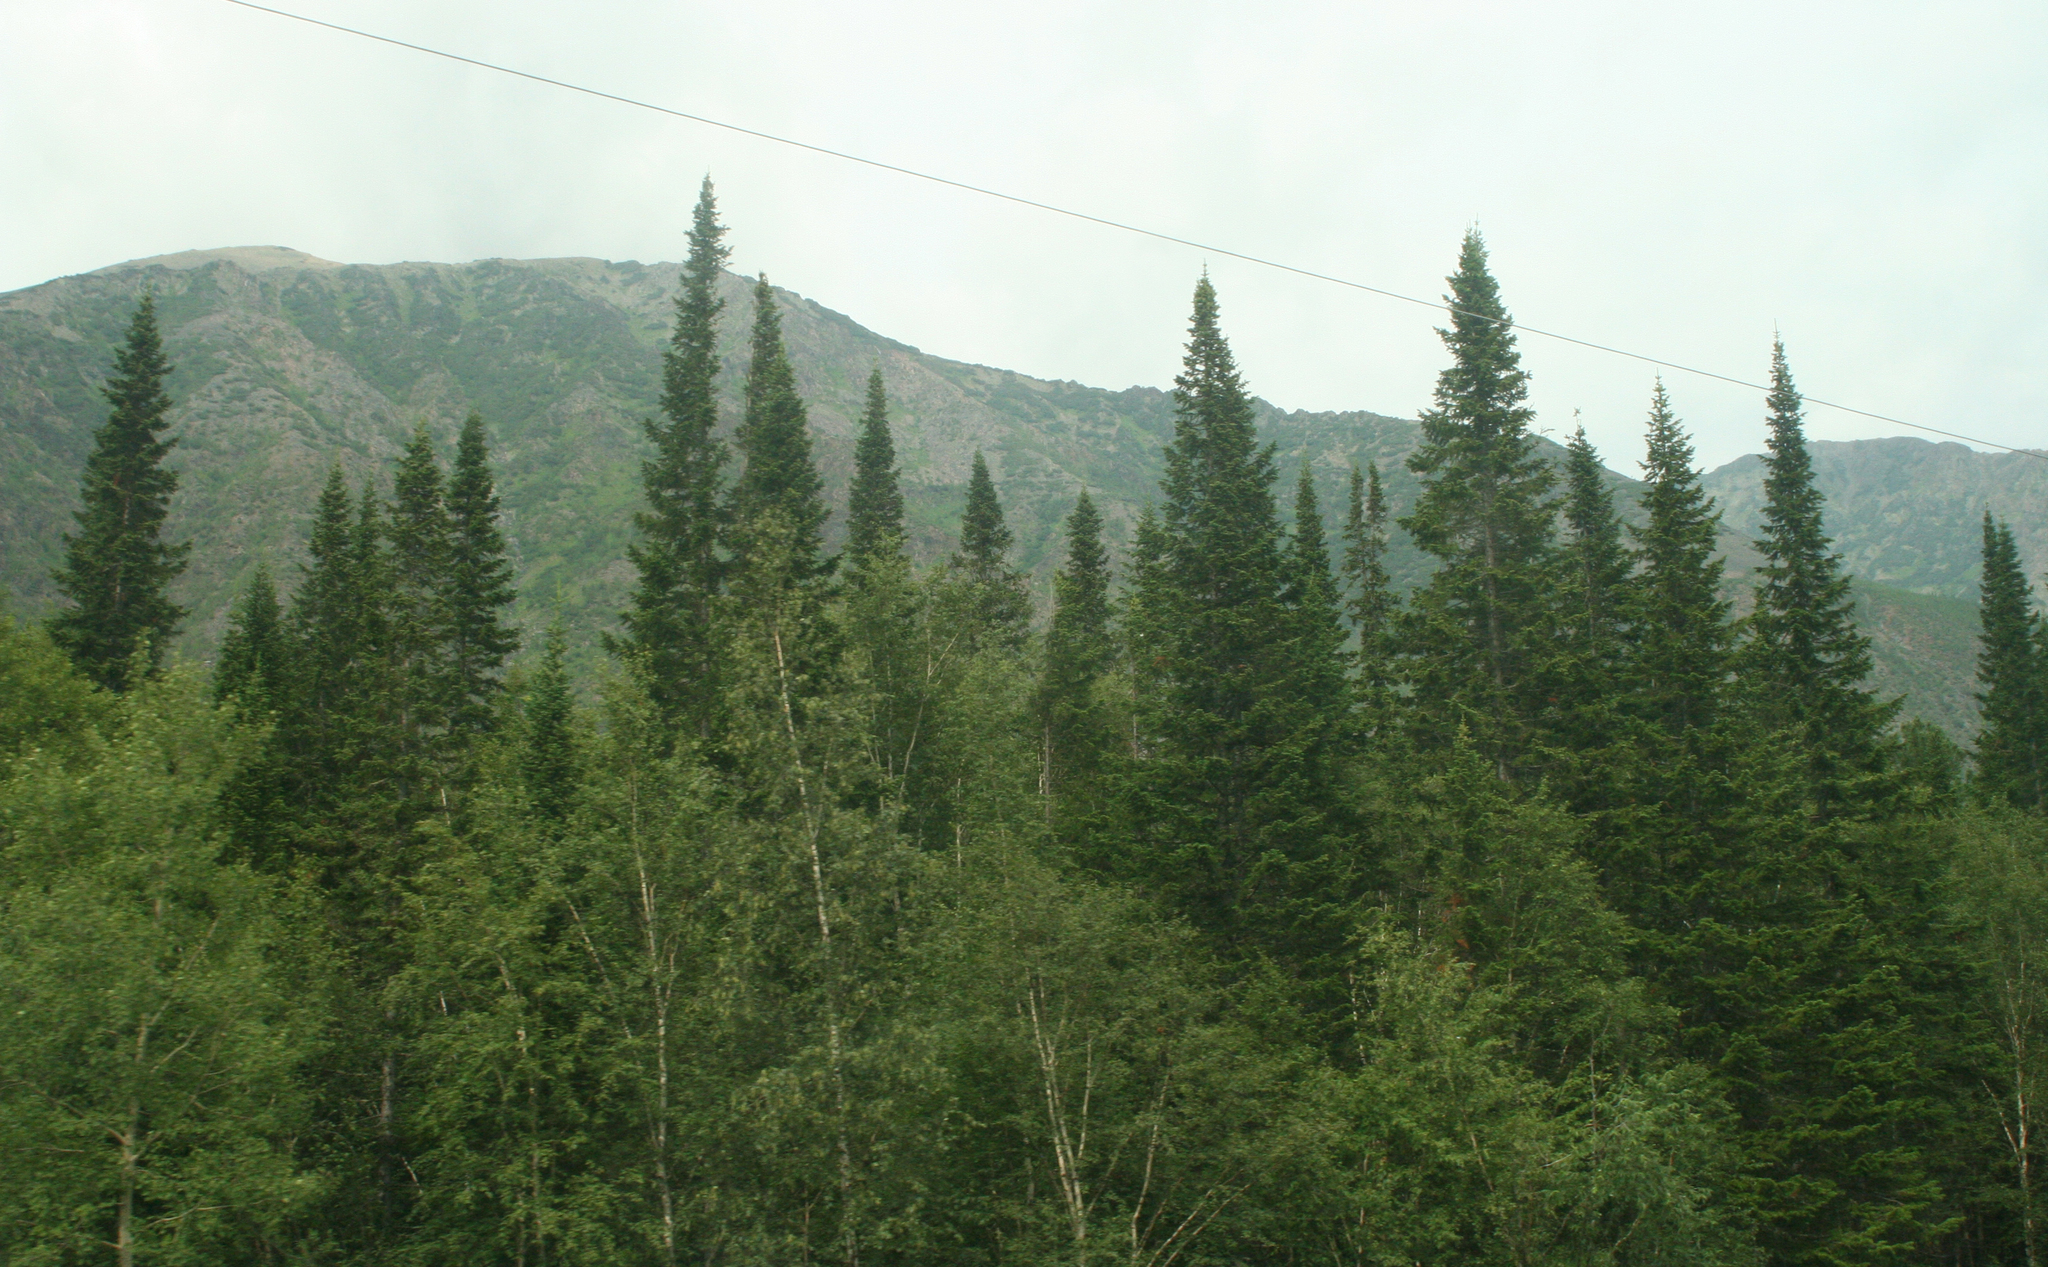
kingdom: Plantae
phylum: Tracheophyta
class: Pinopsida
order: Pinales
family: Pinaceae
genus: Abies
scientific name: Abies sibirica
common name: Siberian fir
